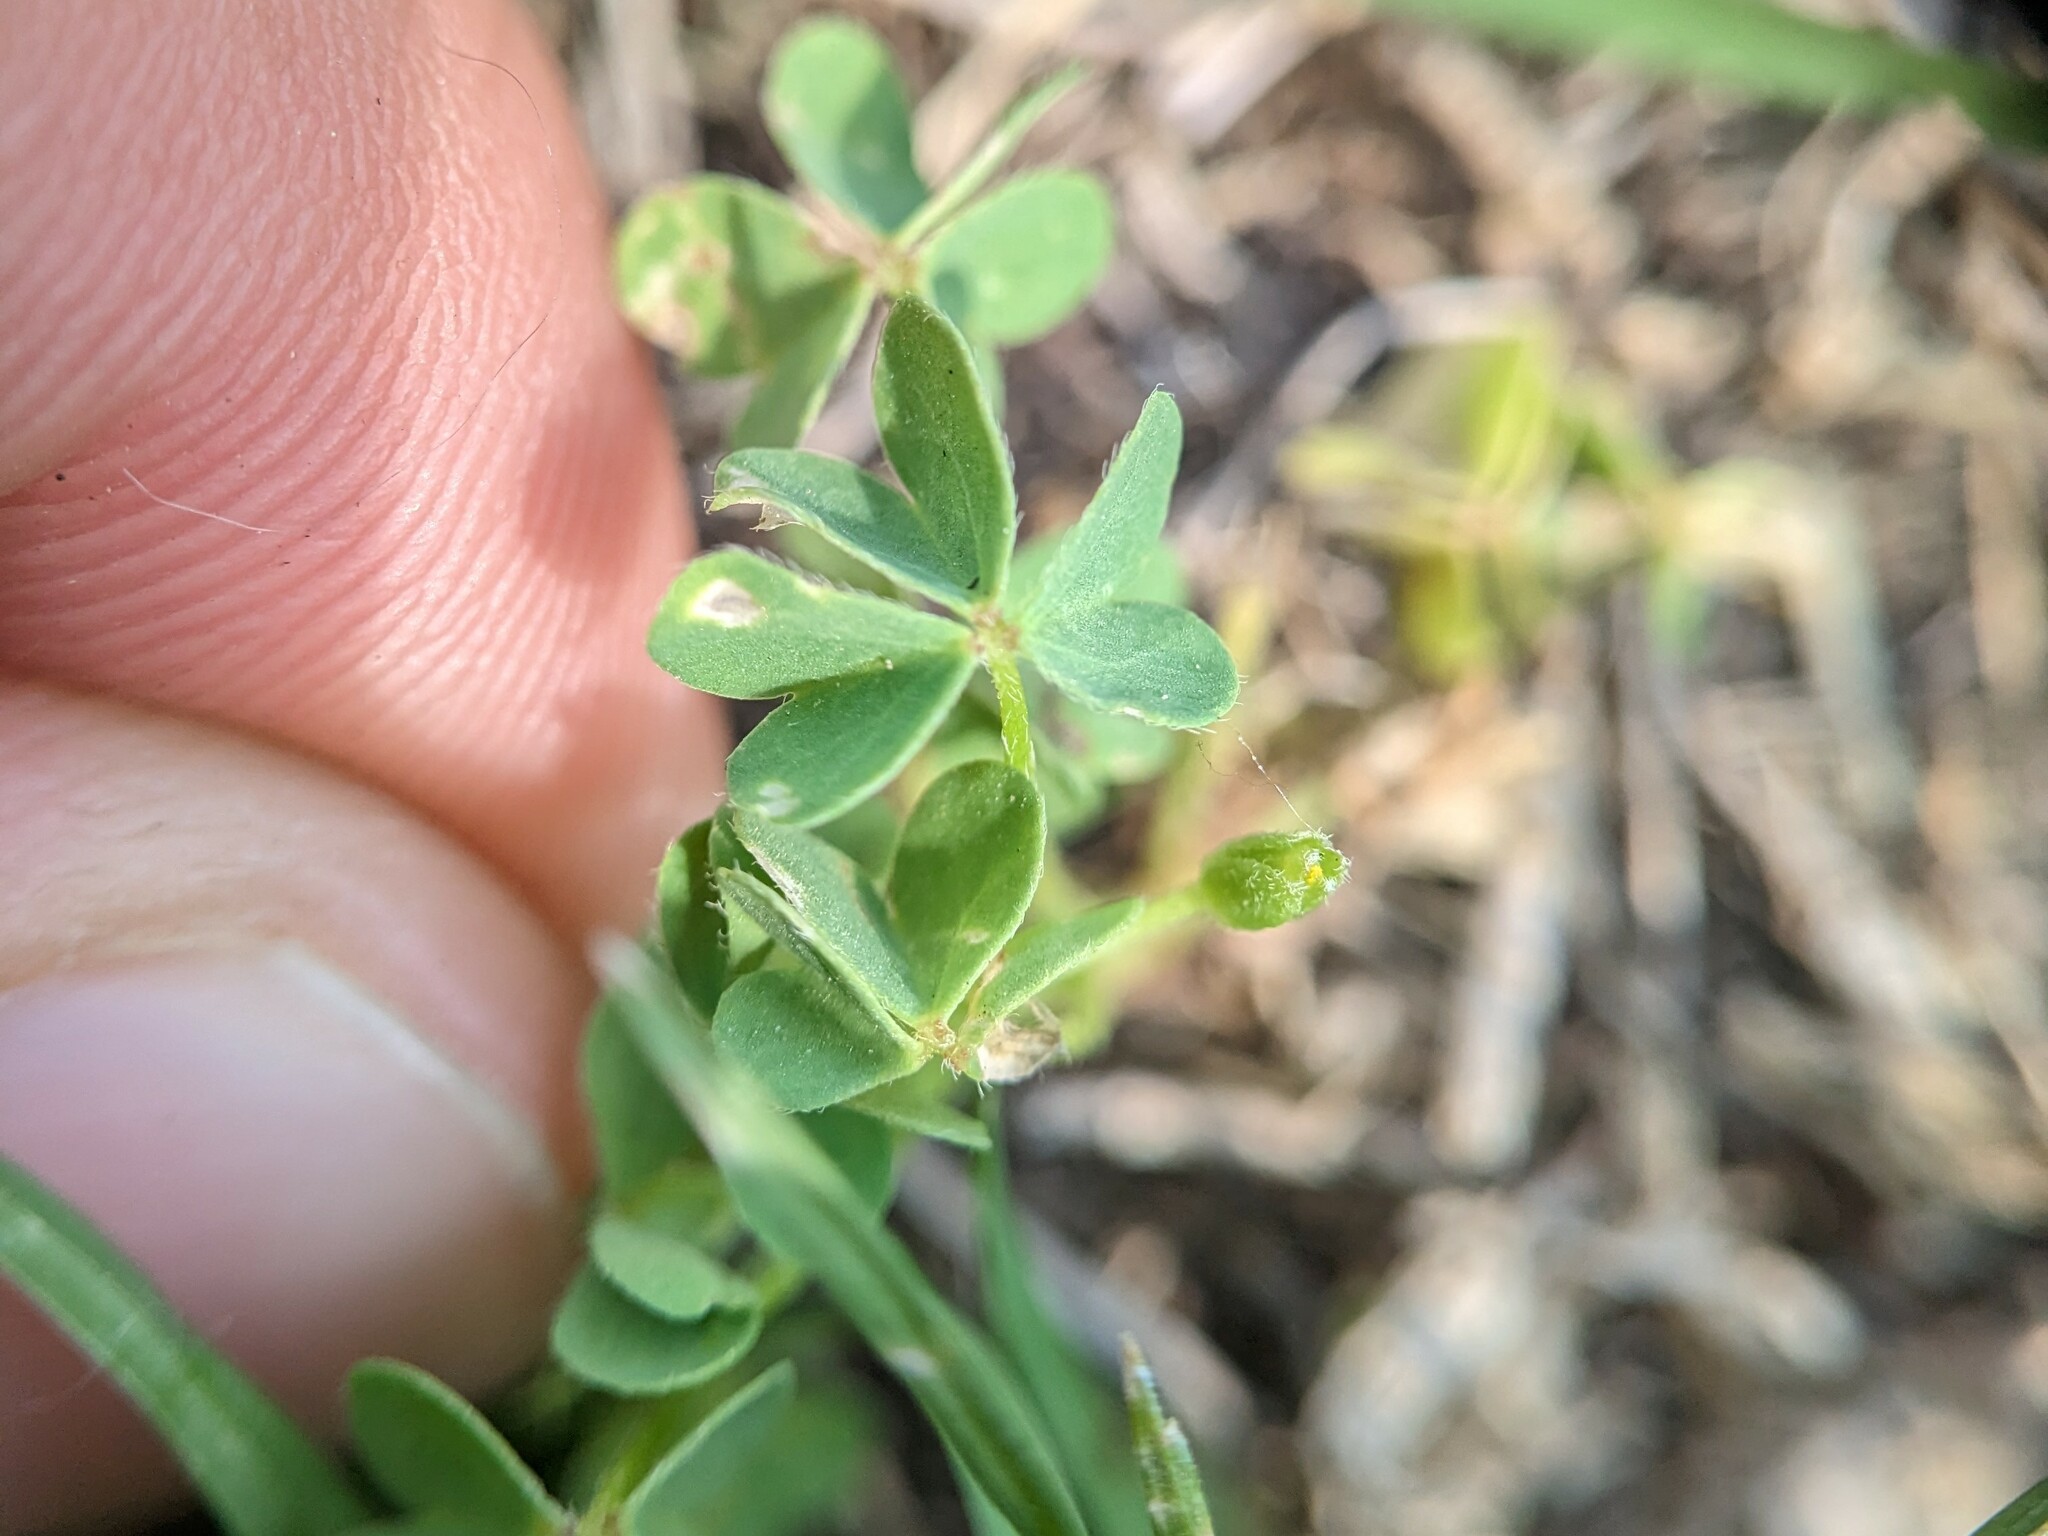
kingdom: Plantae
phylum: Tracheophyta
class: Magnoliopsida
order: Oxalidales
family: Oxalidaceae
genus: Oxalis
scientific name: Oxalis dillenii
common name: Sussex yellow-sorrel
